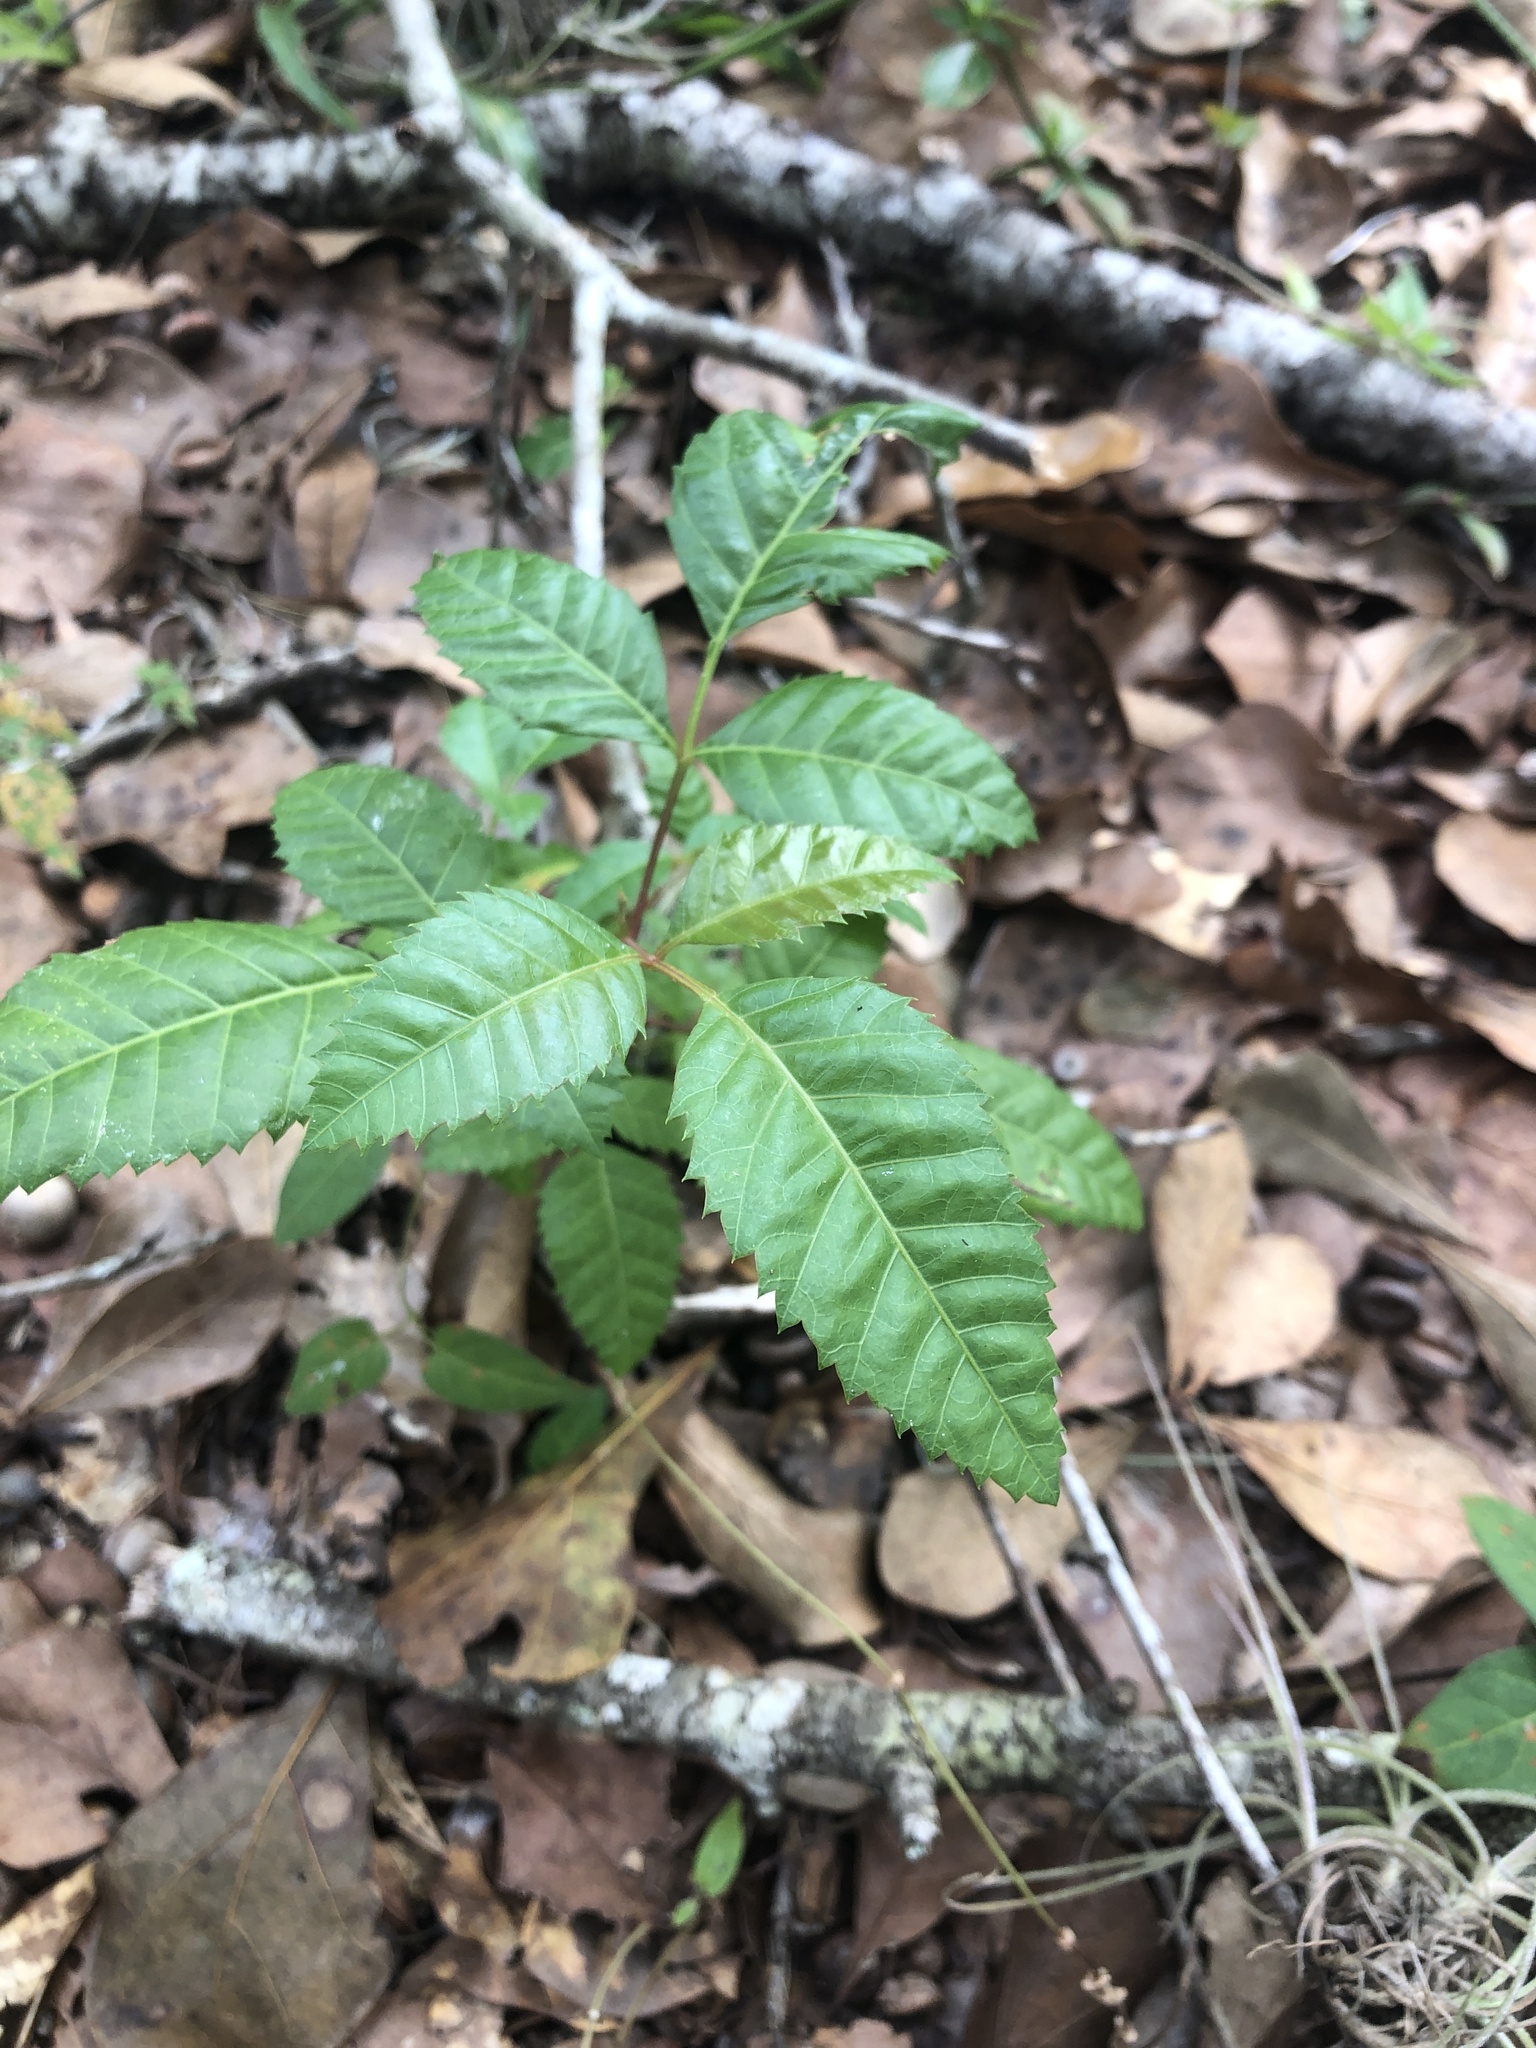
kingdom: Plantae
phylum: Tracheophyta
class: Magnoliopsida
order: Sapindales
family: Anacardiaceae
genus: Schinus
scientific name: Schinus terebinthifolia
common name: Brazilian peppertree
